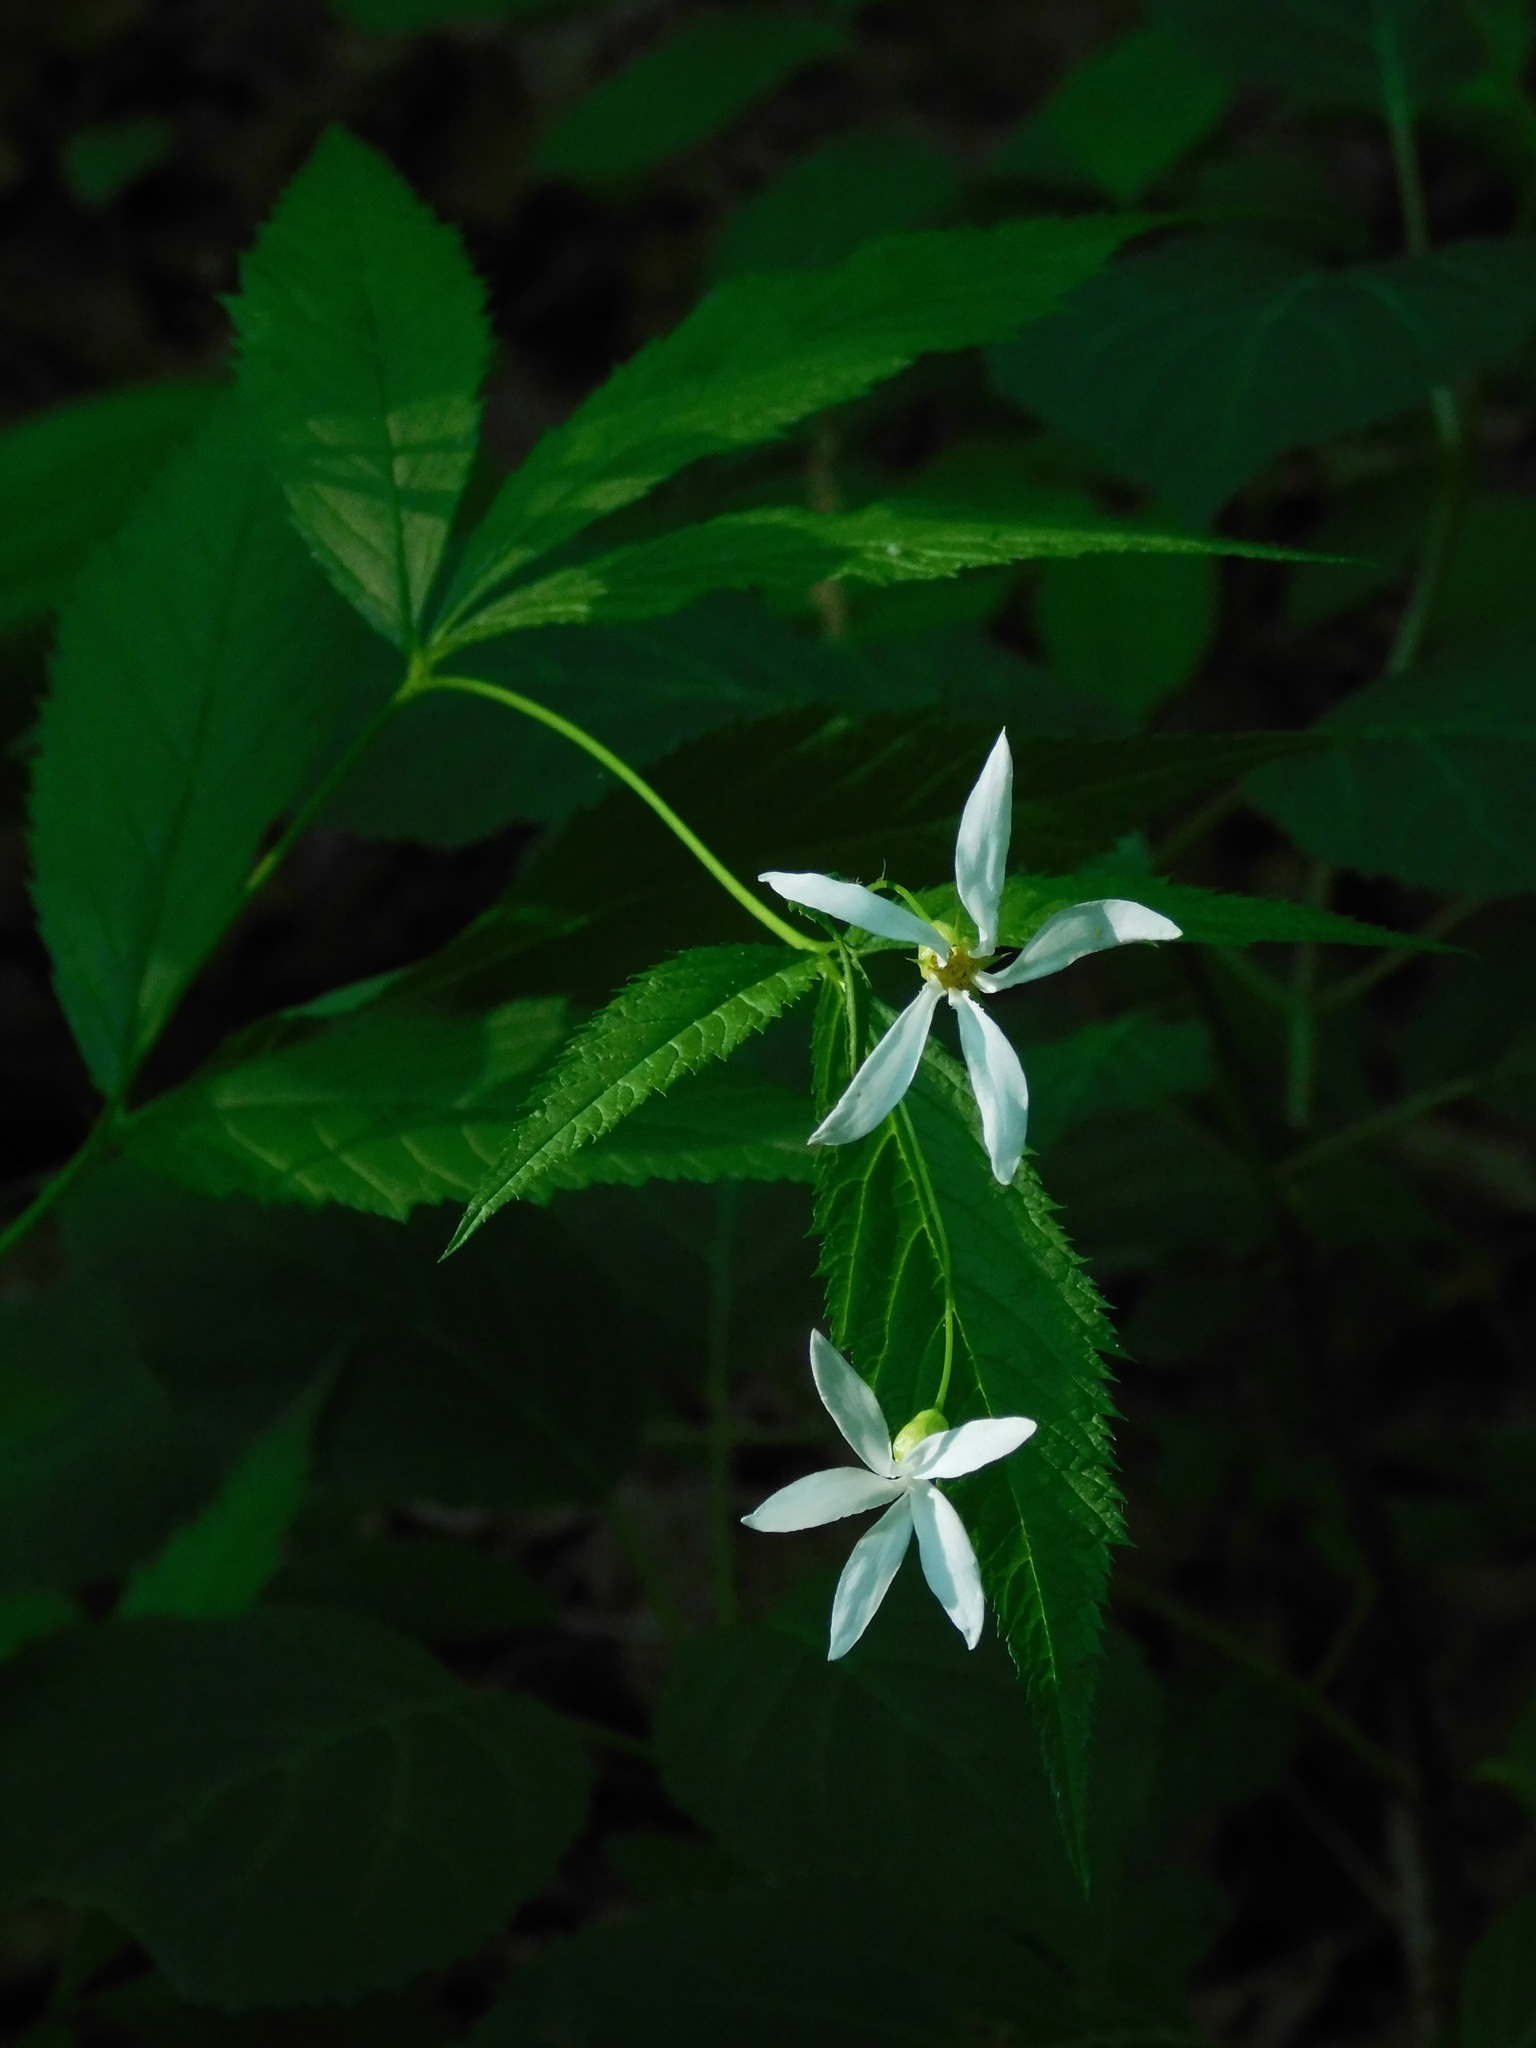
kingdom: Plantae
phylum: Tracheophyta
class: Magnoliopsida
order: Rosales
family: Rosaceae
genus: Gillenia
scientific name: Gillenia trifoliata
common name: Bowman's-root
